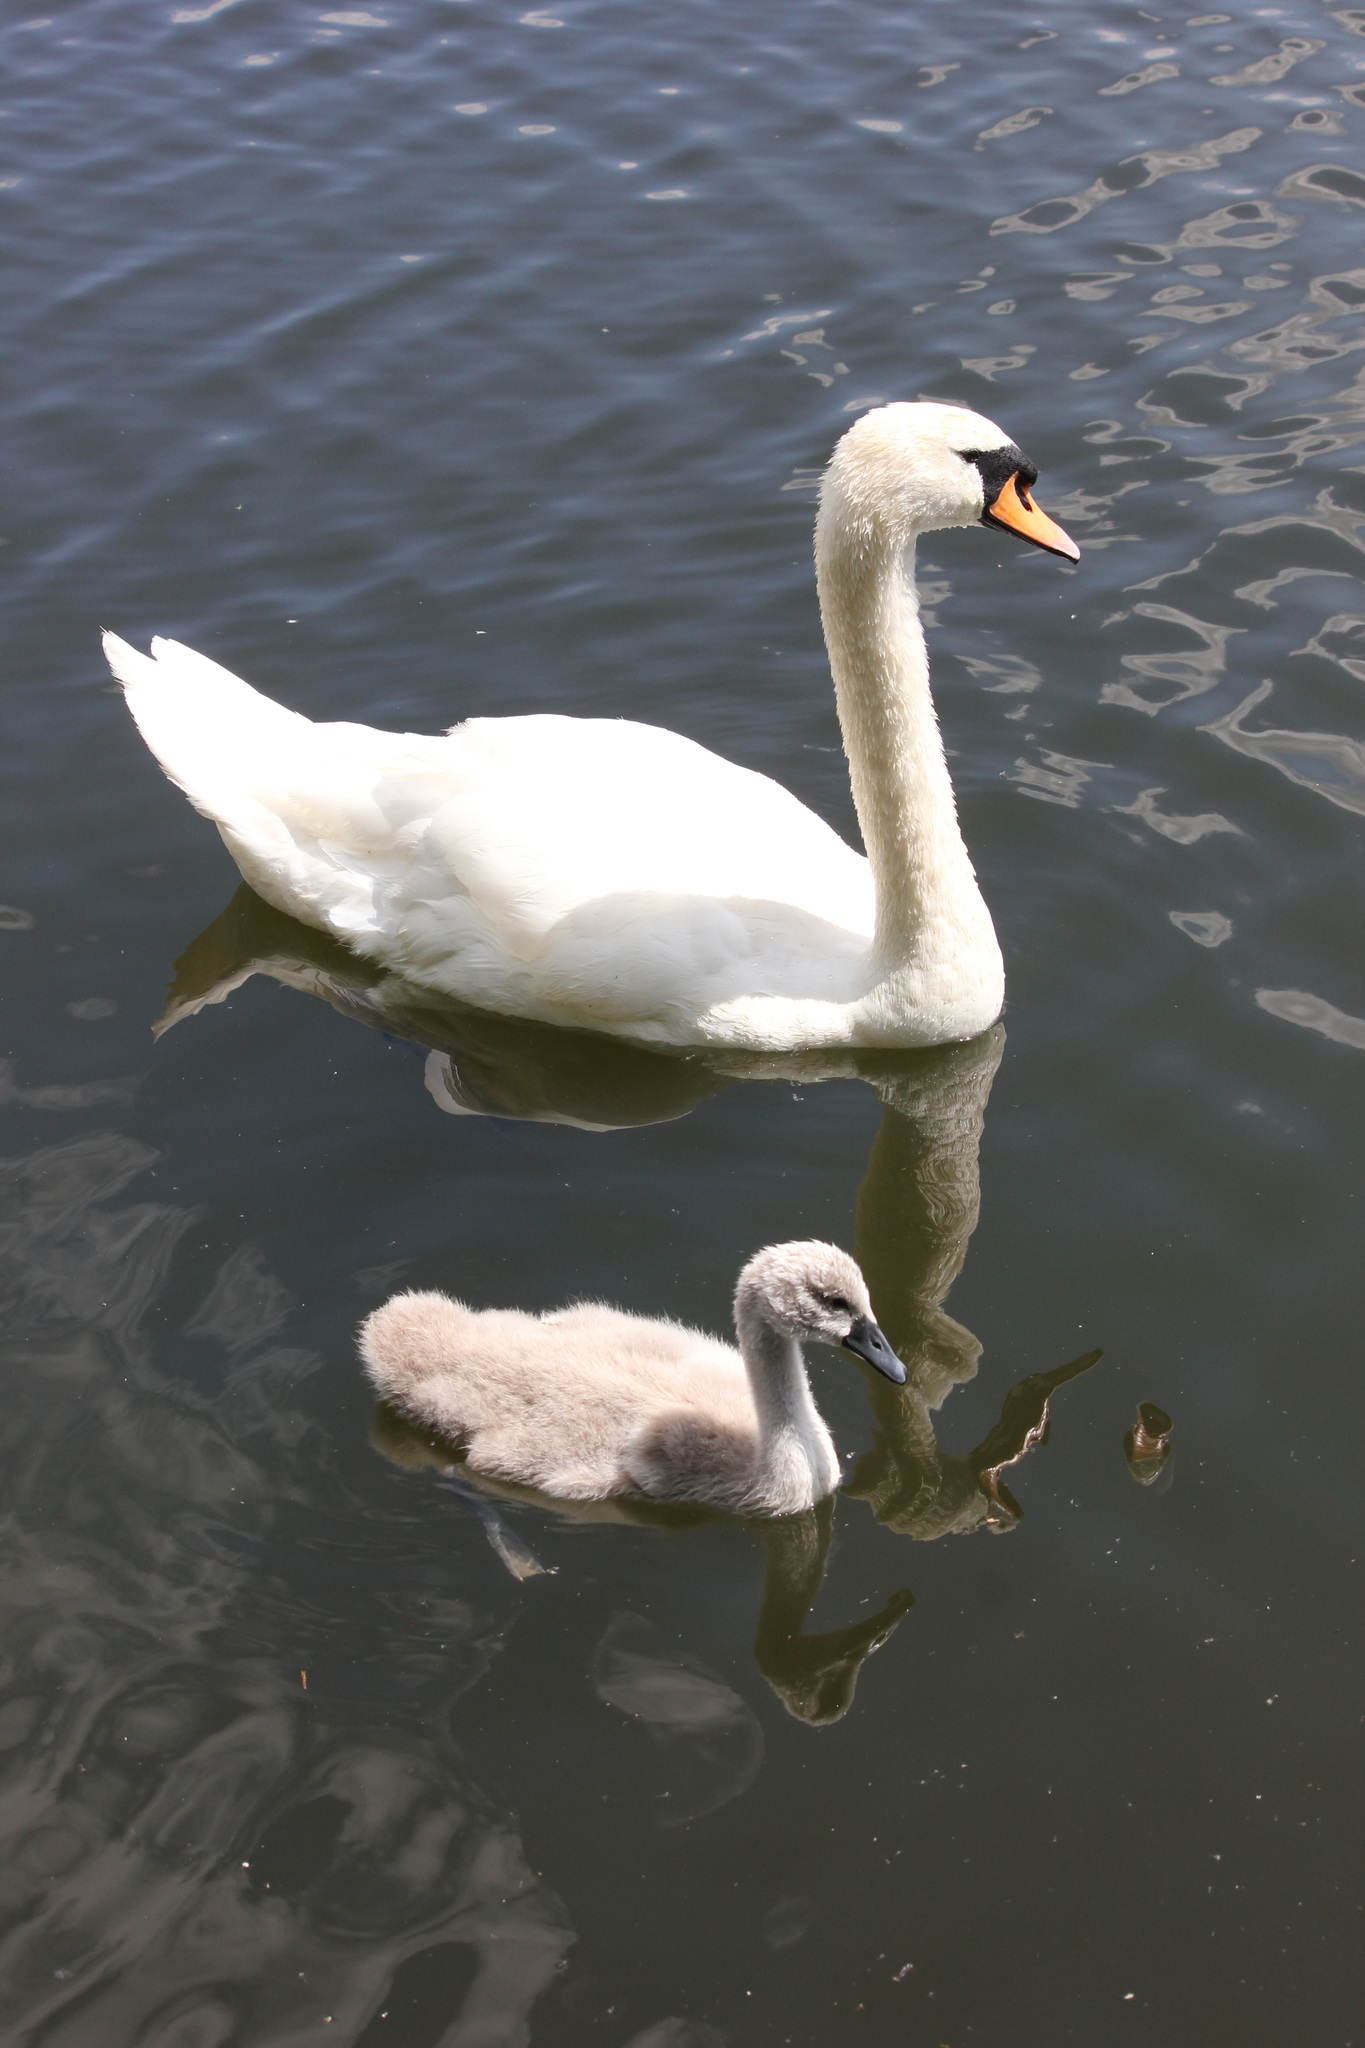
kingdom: Animalia
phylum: Chordata
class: Aves
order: Anseriformes
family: Anatidae
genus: Cygnus
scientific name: Cygnus olor
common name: Mute swan
